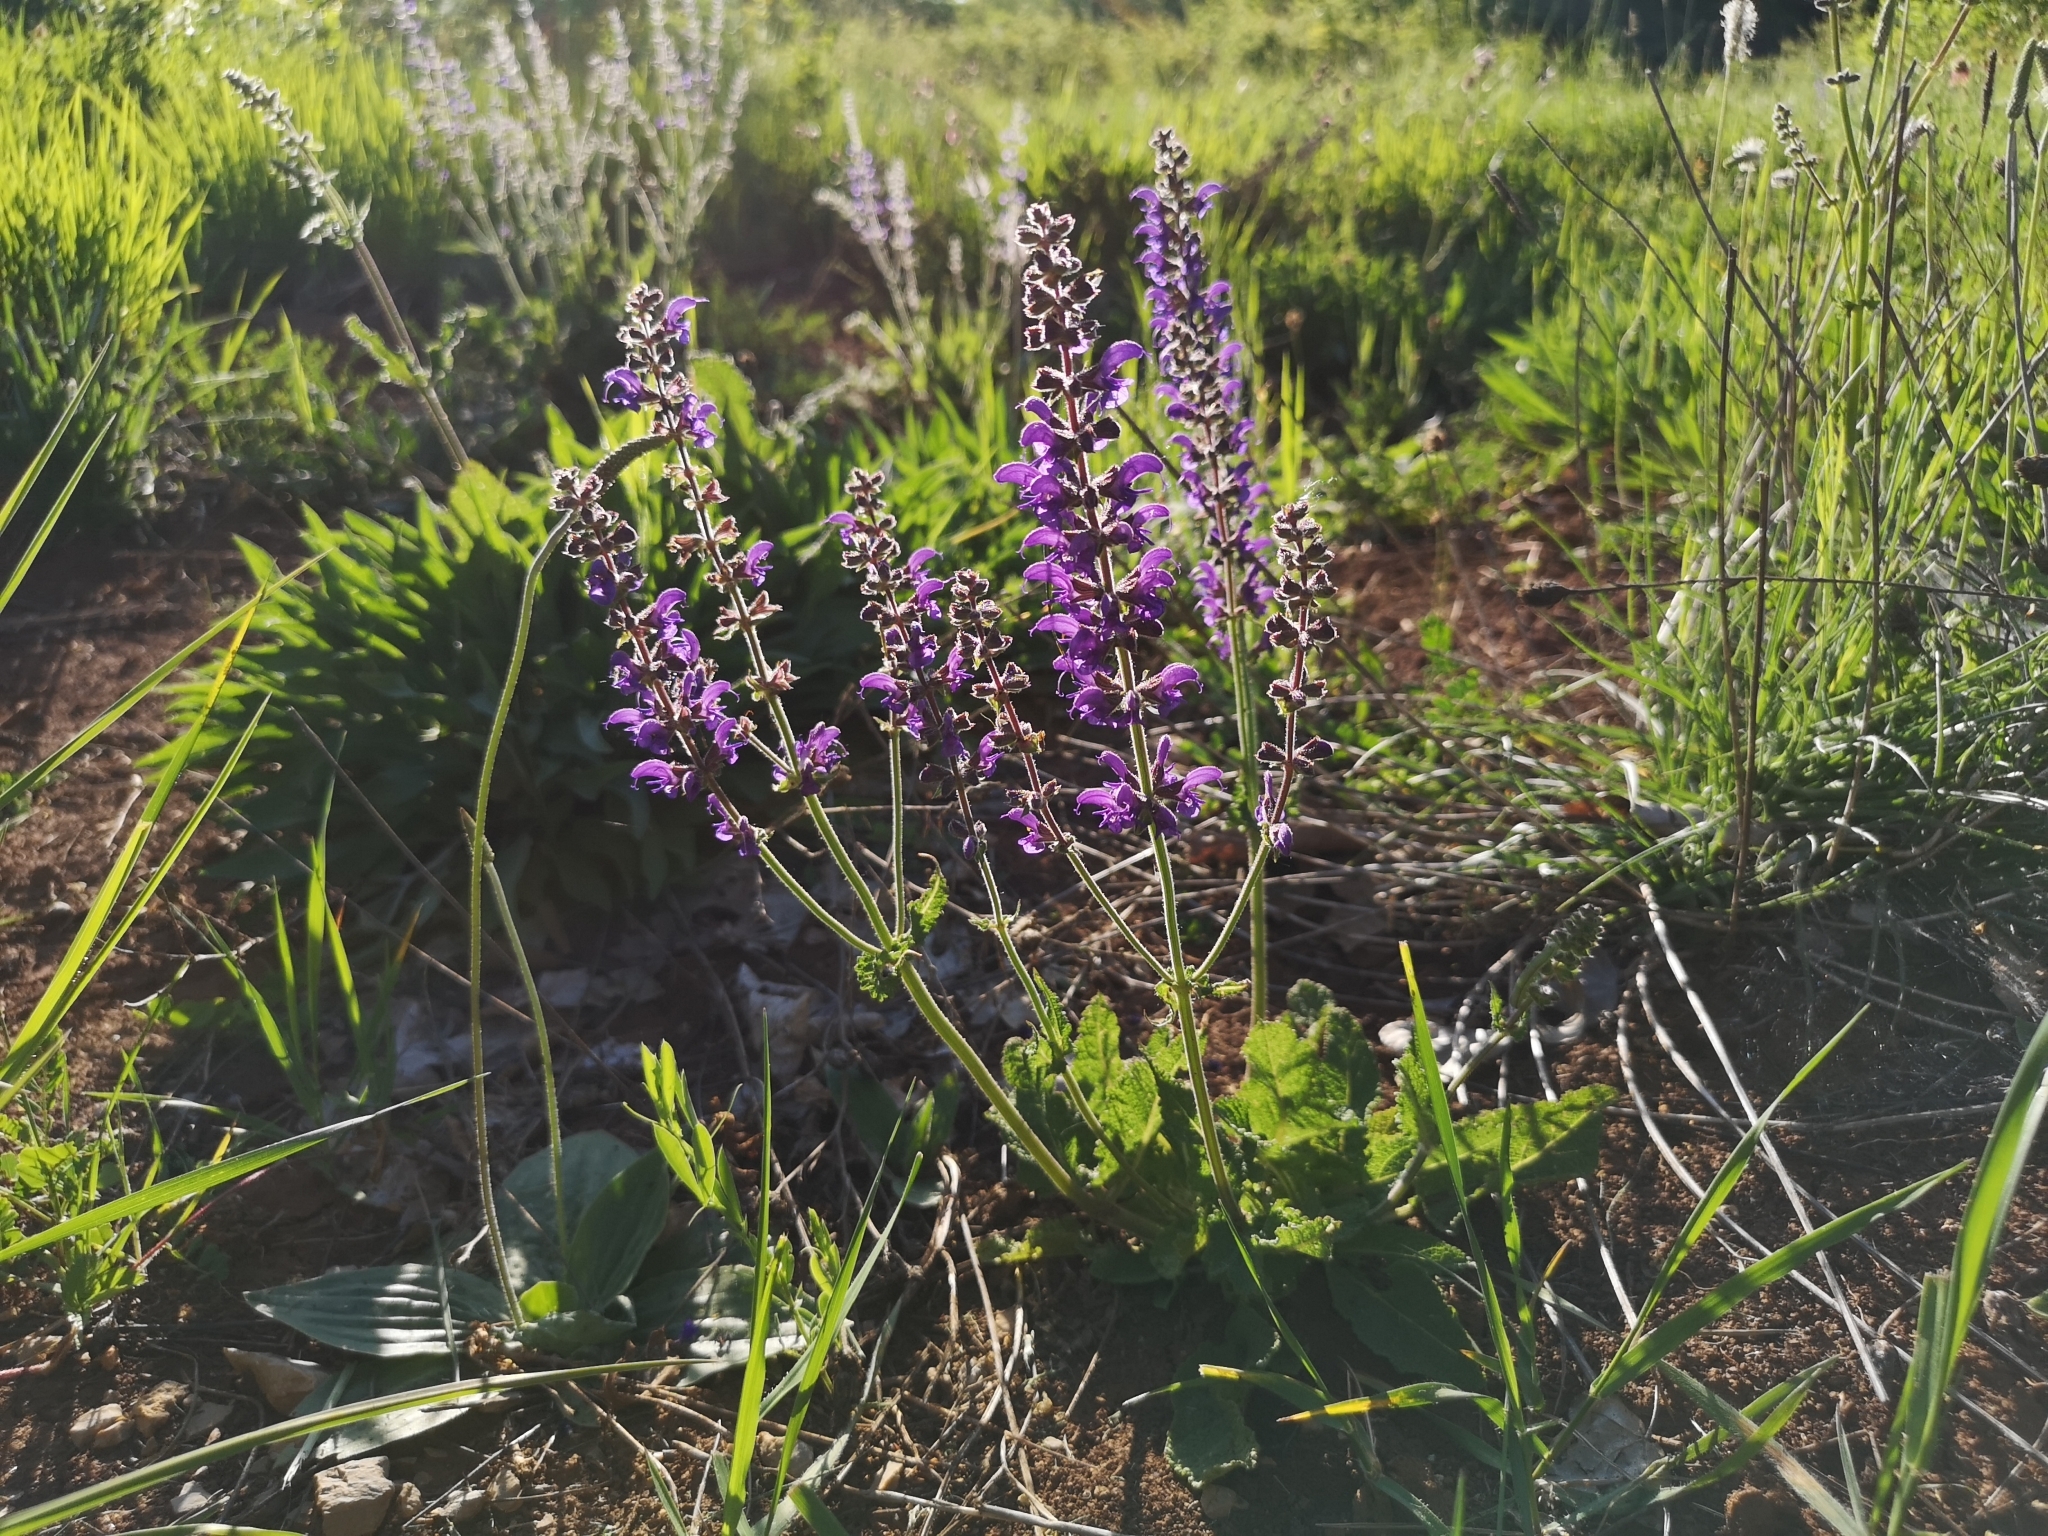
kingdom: Plantae
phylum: Tracheophyta
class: Magnoliopsida
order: Lamiales
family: Lamiaceae
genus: Salvia
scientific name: Salvia pratensis
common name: Meadow sage
